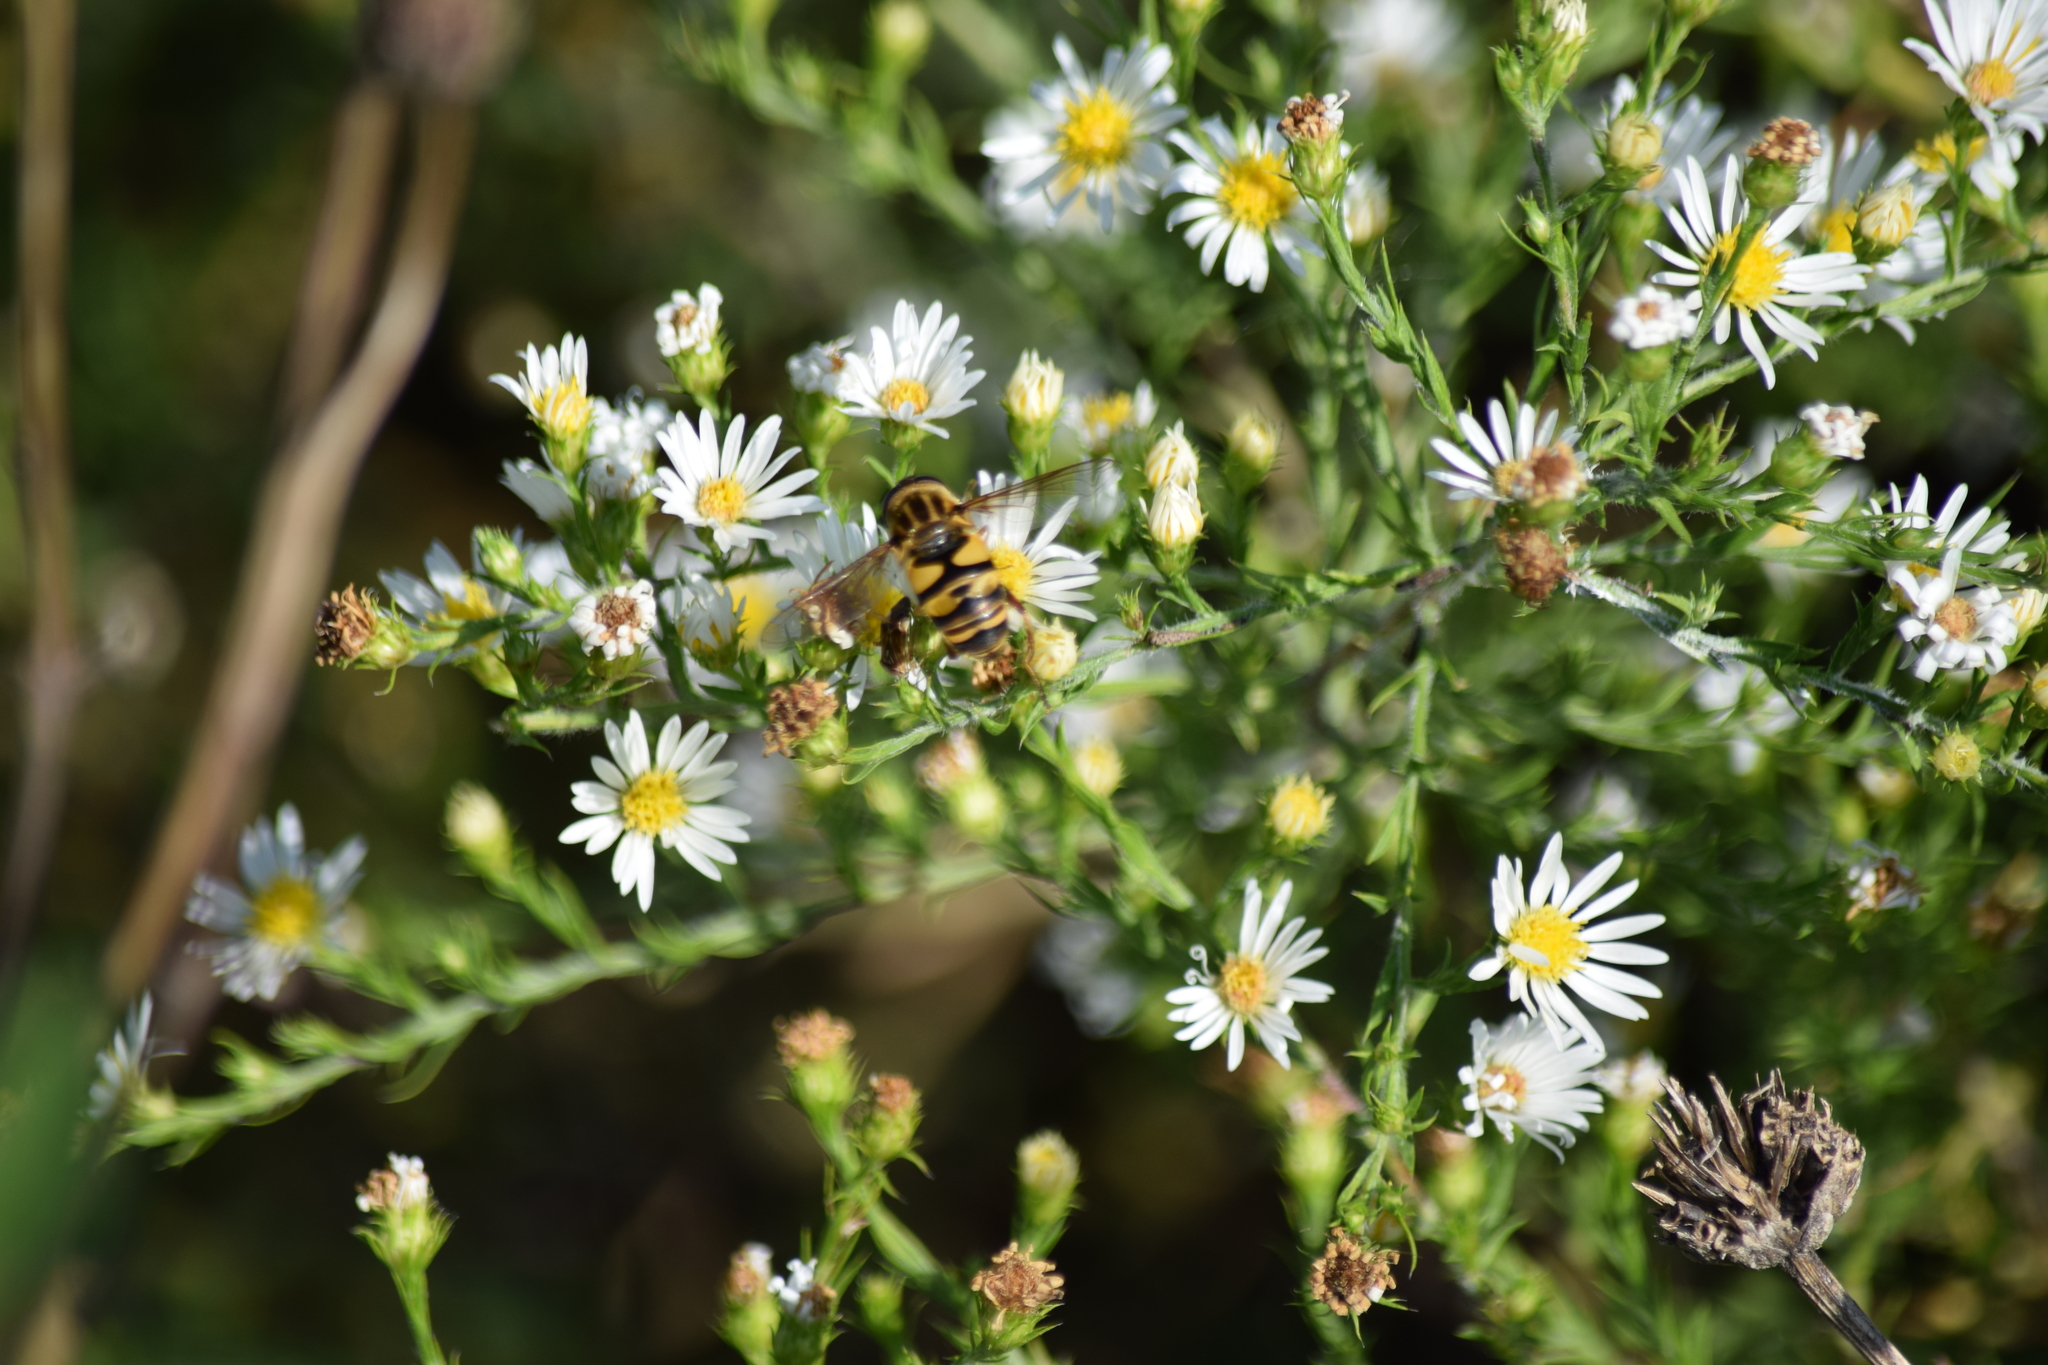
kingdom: Animalia
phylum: Arthropoda
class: Insecta
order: Diptera
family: Syrphidae
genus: Helophilus
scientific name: Helophilus fasciatus
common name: Narrow-headed marsh fly
